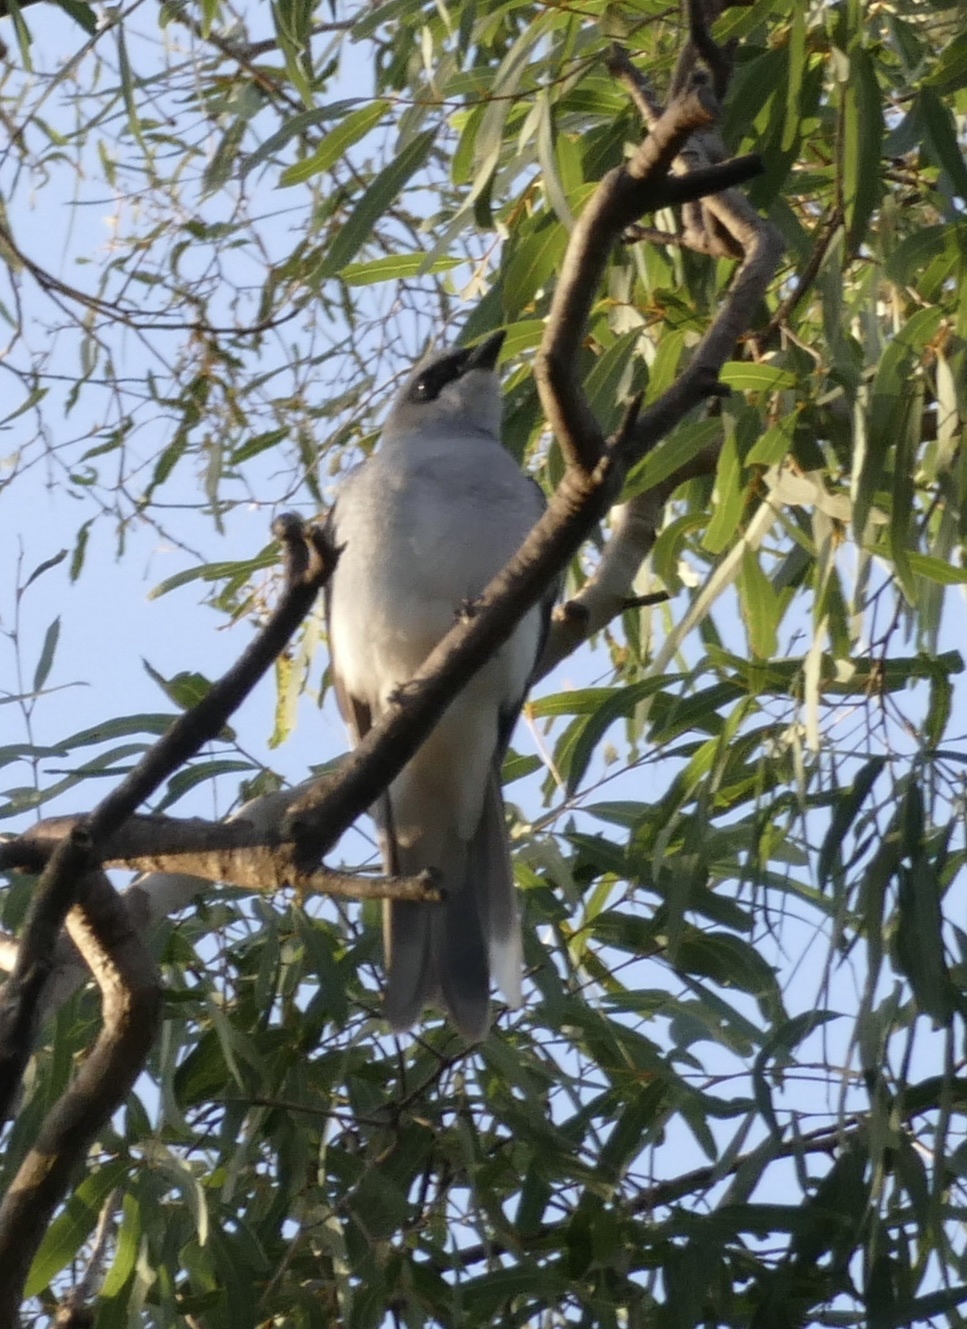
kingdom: Animalia
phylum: Chordata
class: Aves
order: Passeriformes
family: Campephagidae
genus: Coracina
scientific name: Coracina papuensis
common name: White-bellied cuckooshrike
